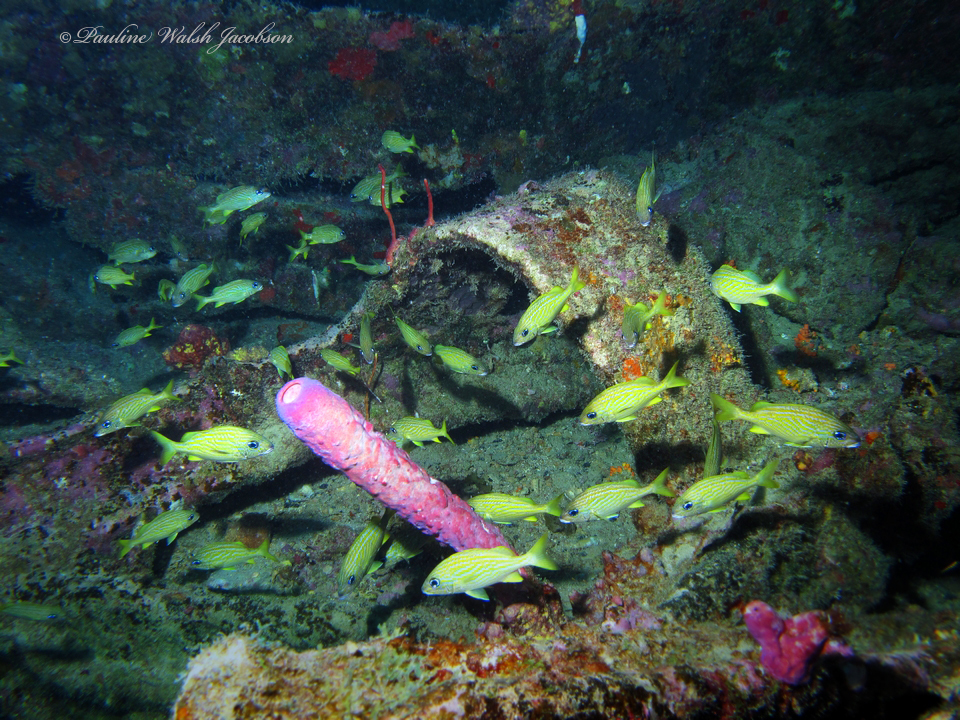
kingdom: Animalia
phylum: Chordata
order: Perciformes
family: Haemulidae
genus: Haemulon
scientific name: Haemulon flavolineatum
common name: French grunt
